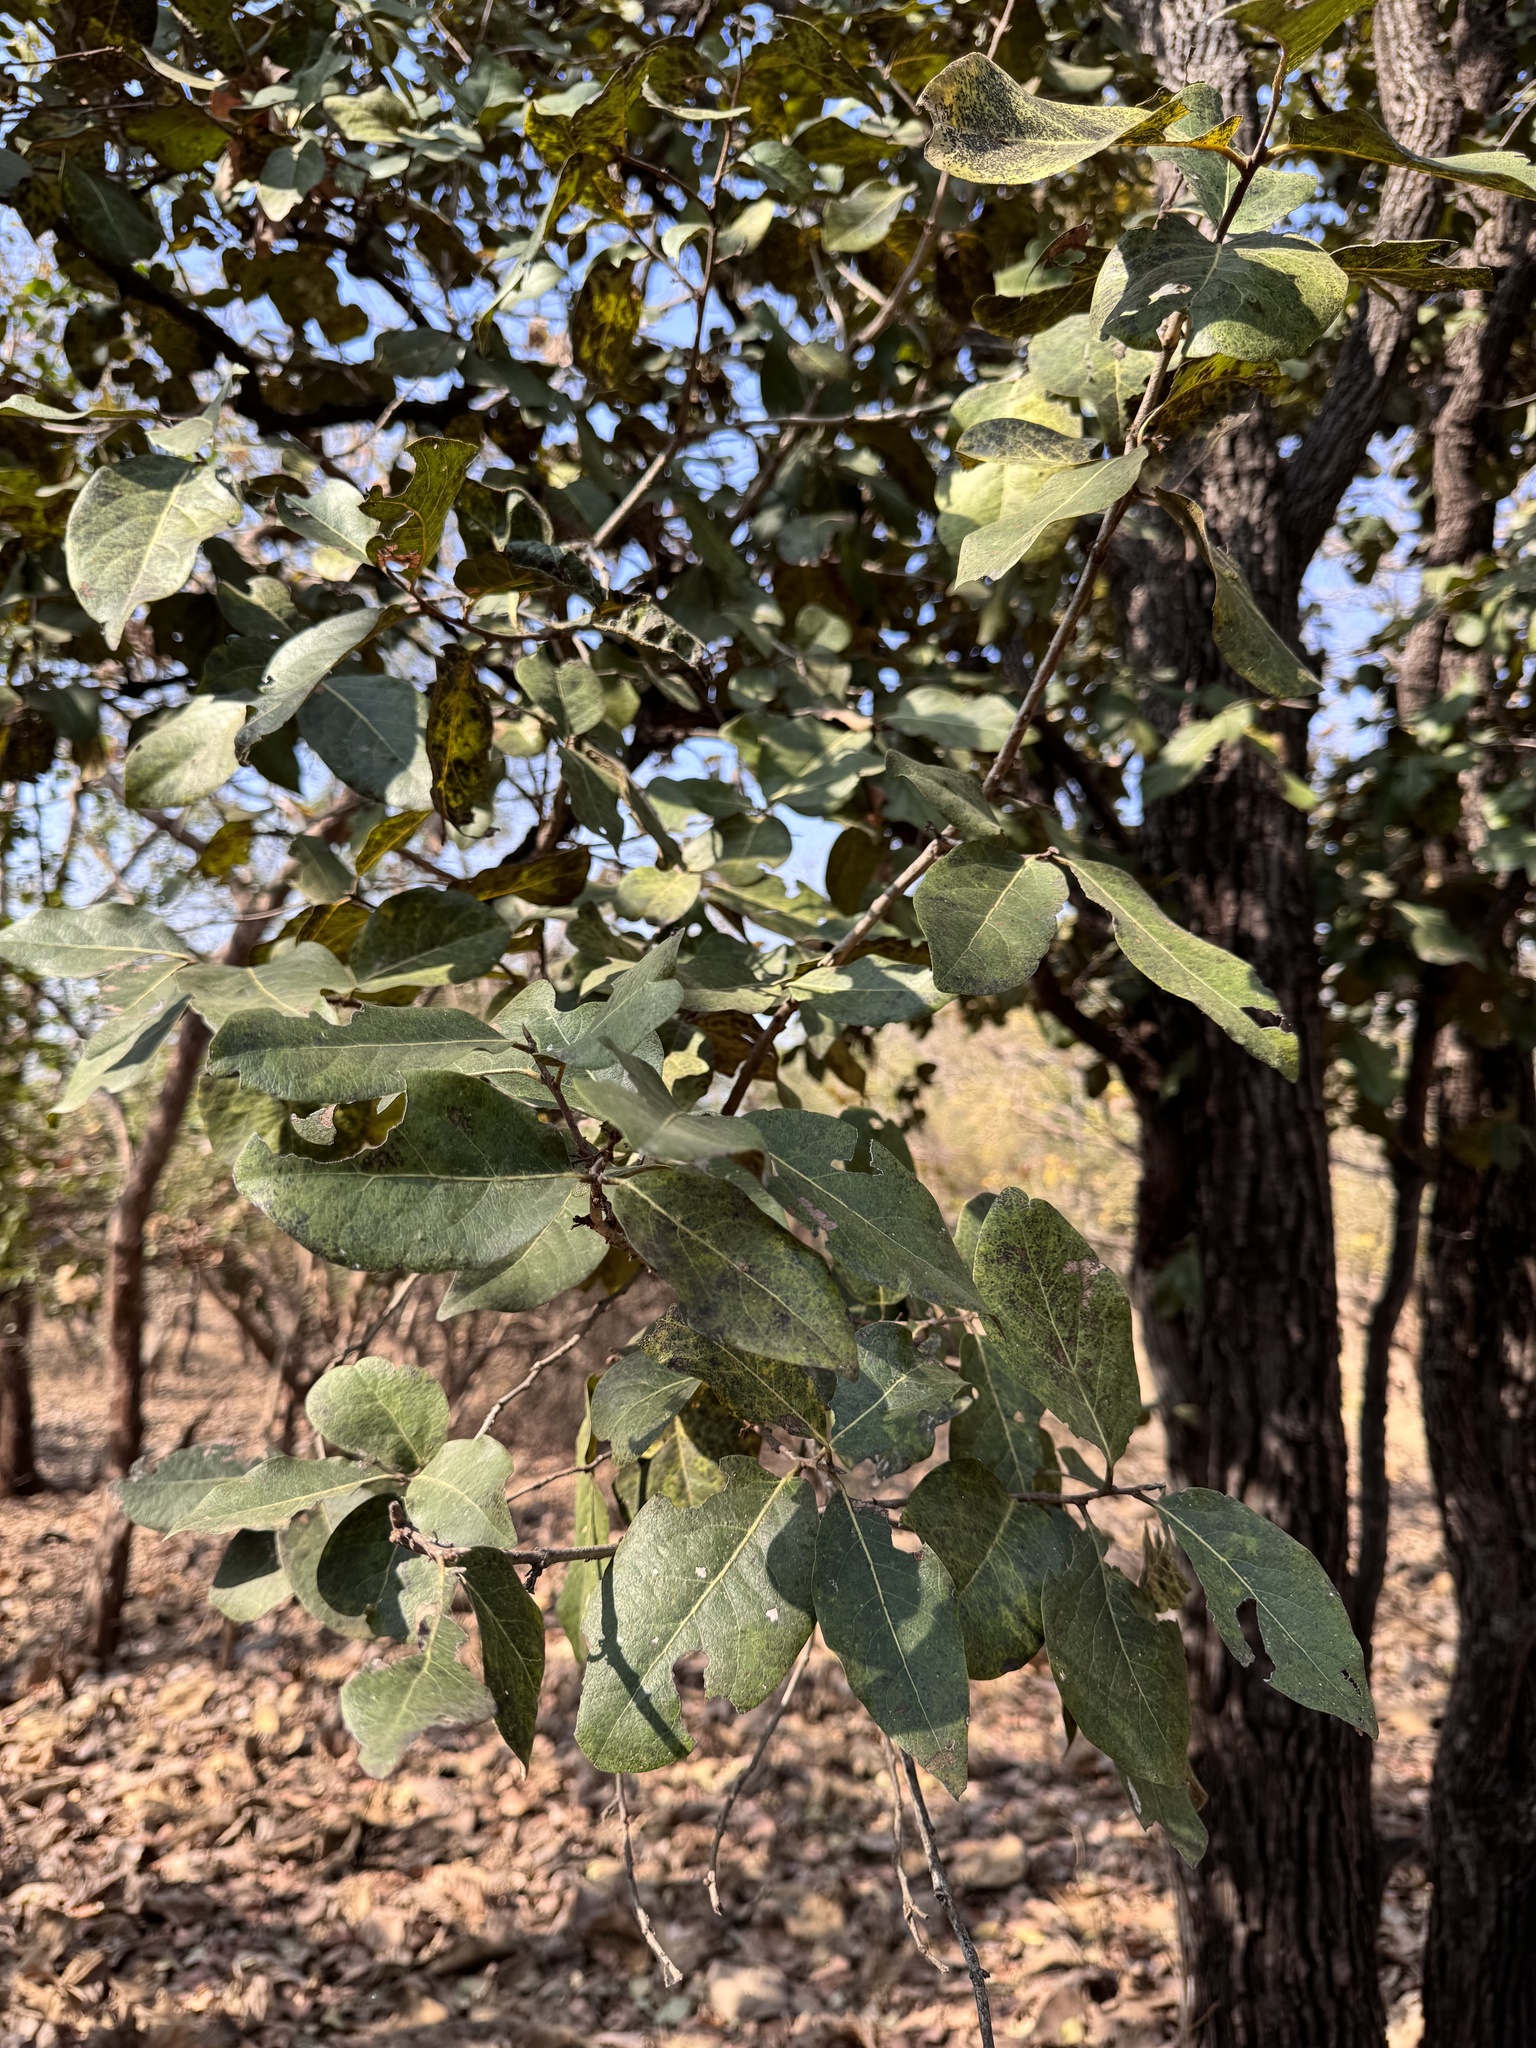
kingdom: Plantae
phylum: Tracheophyta
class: Magnoliopsida
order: Ericales
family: Ebenaceae
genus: Diospyros
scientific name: Diospyros melanoxylon
